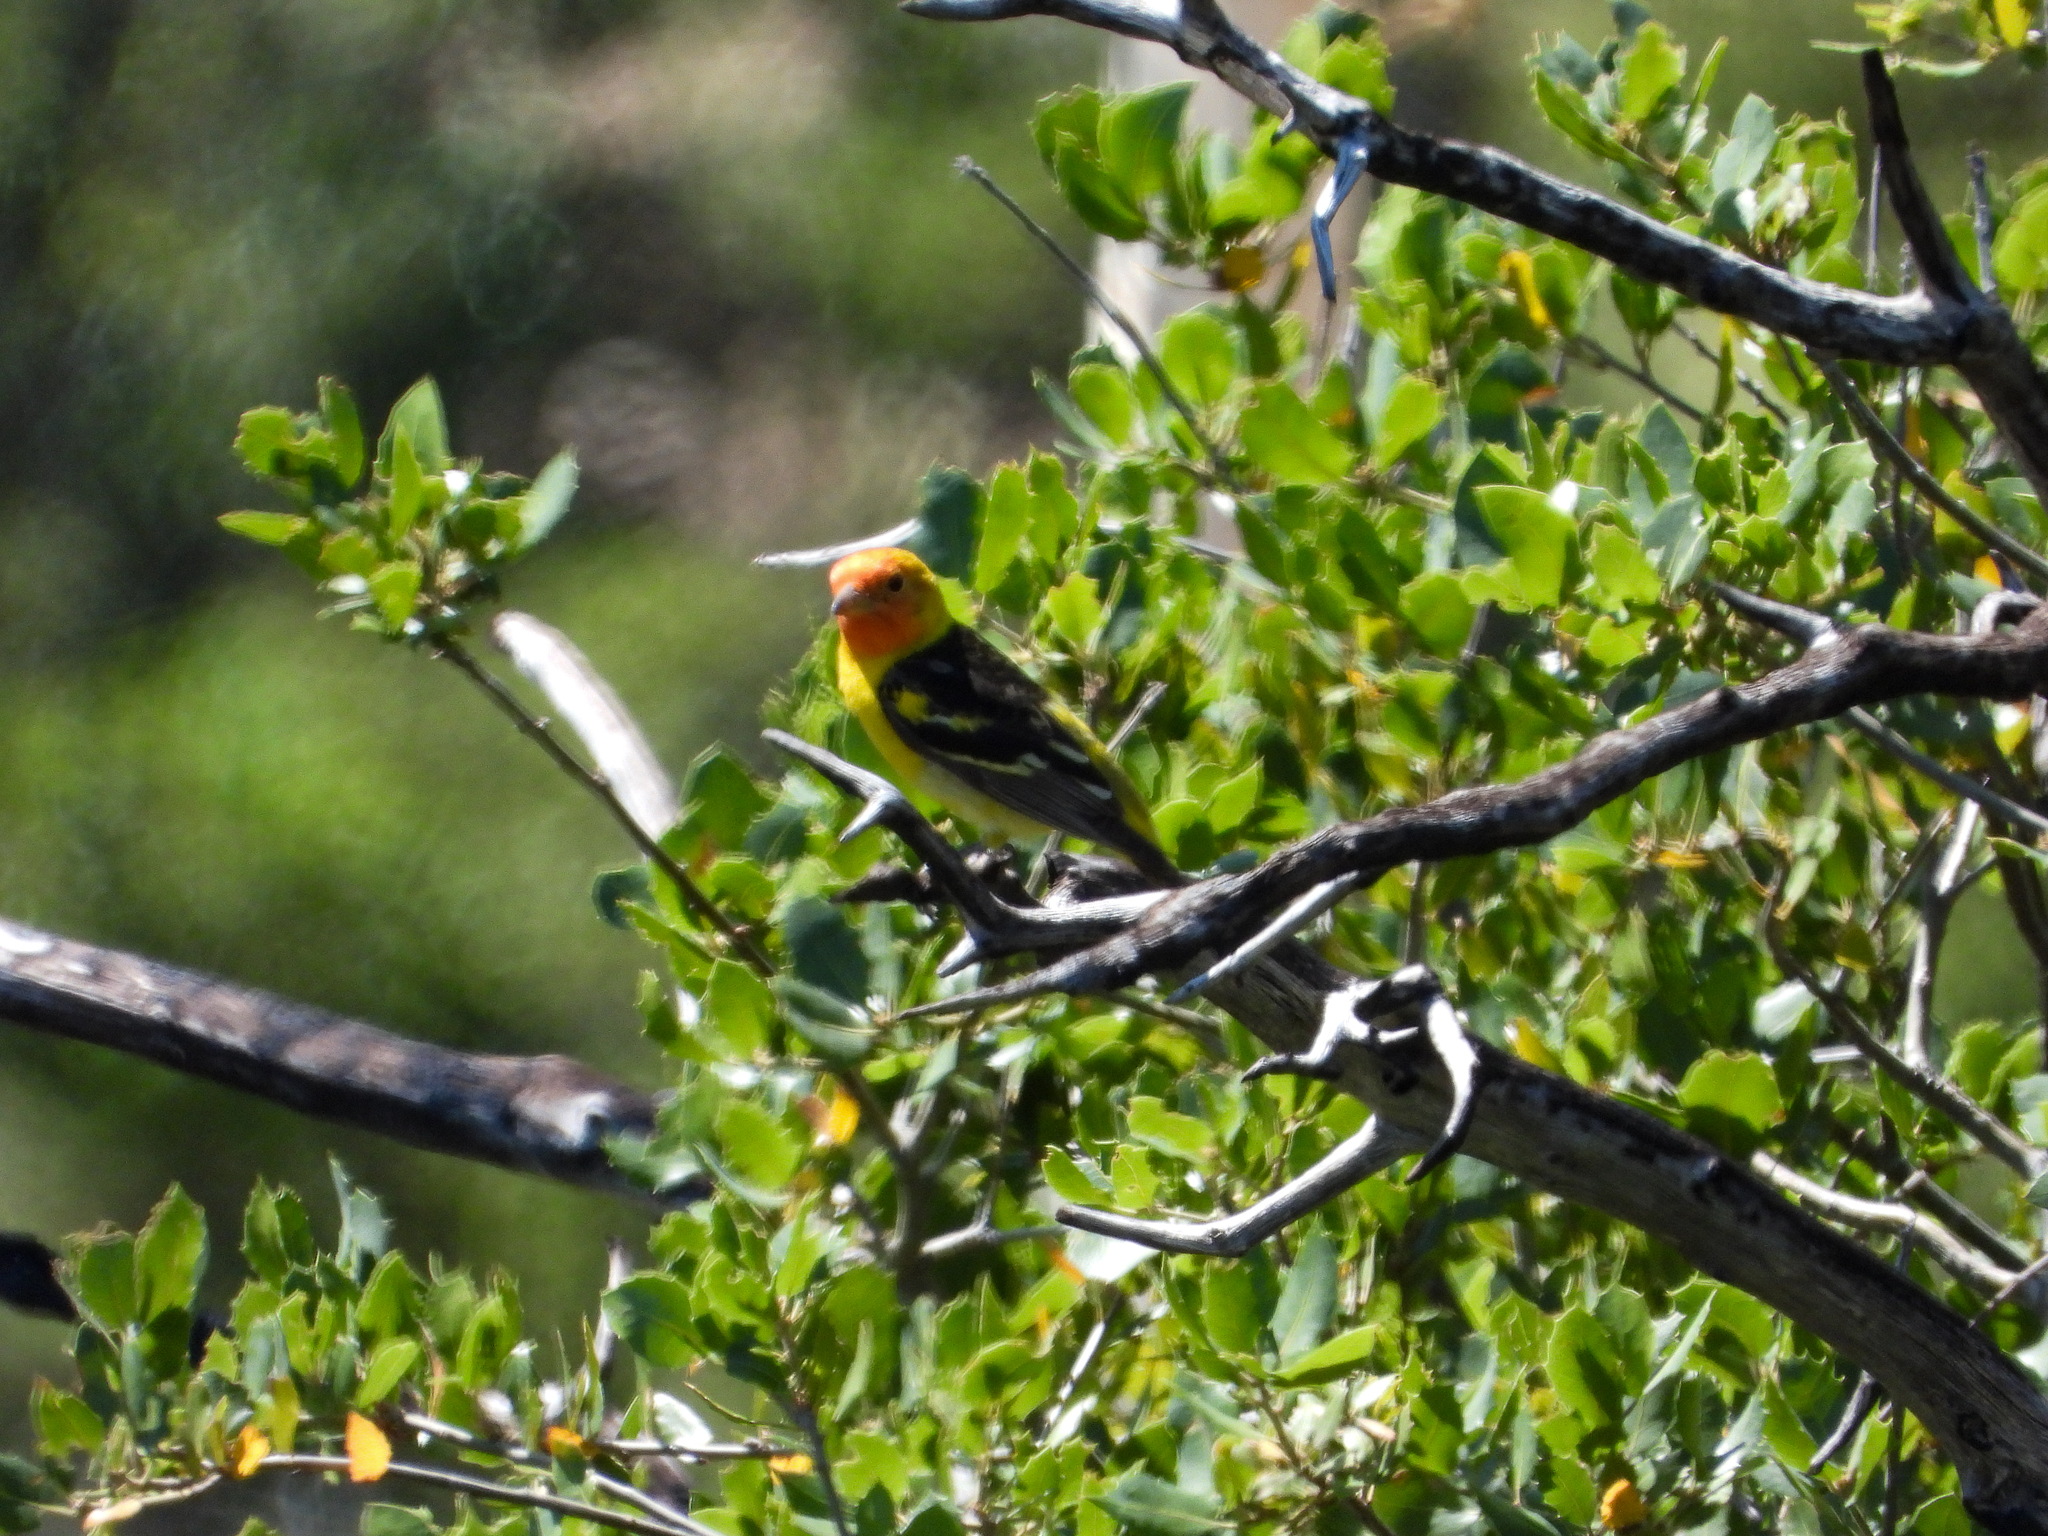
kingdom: Animalia
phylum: Chordata
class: Aves
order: Passeriformes
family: Cardinalidae
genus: Piranga
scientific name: Piranga ludoviciana
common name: Western tanager
